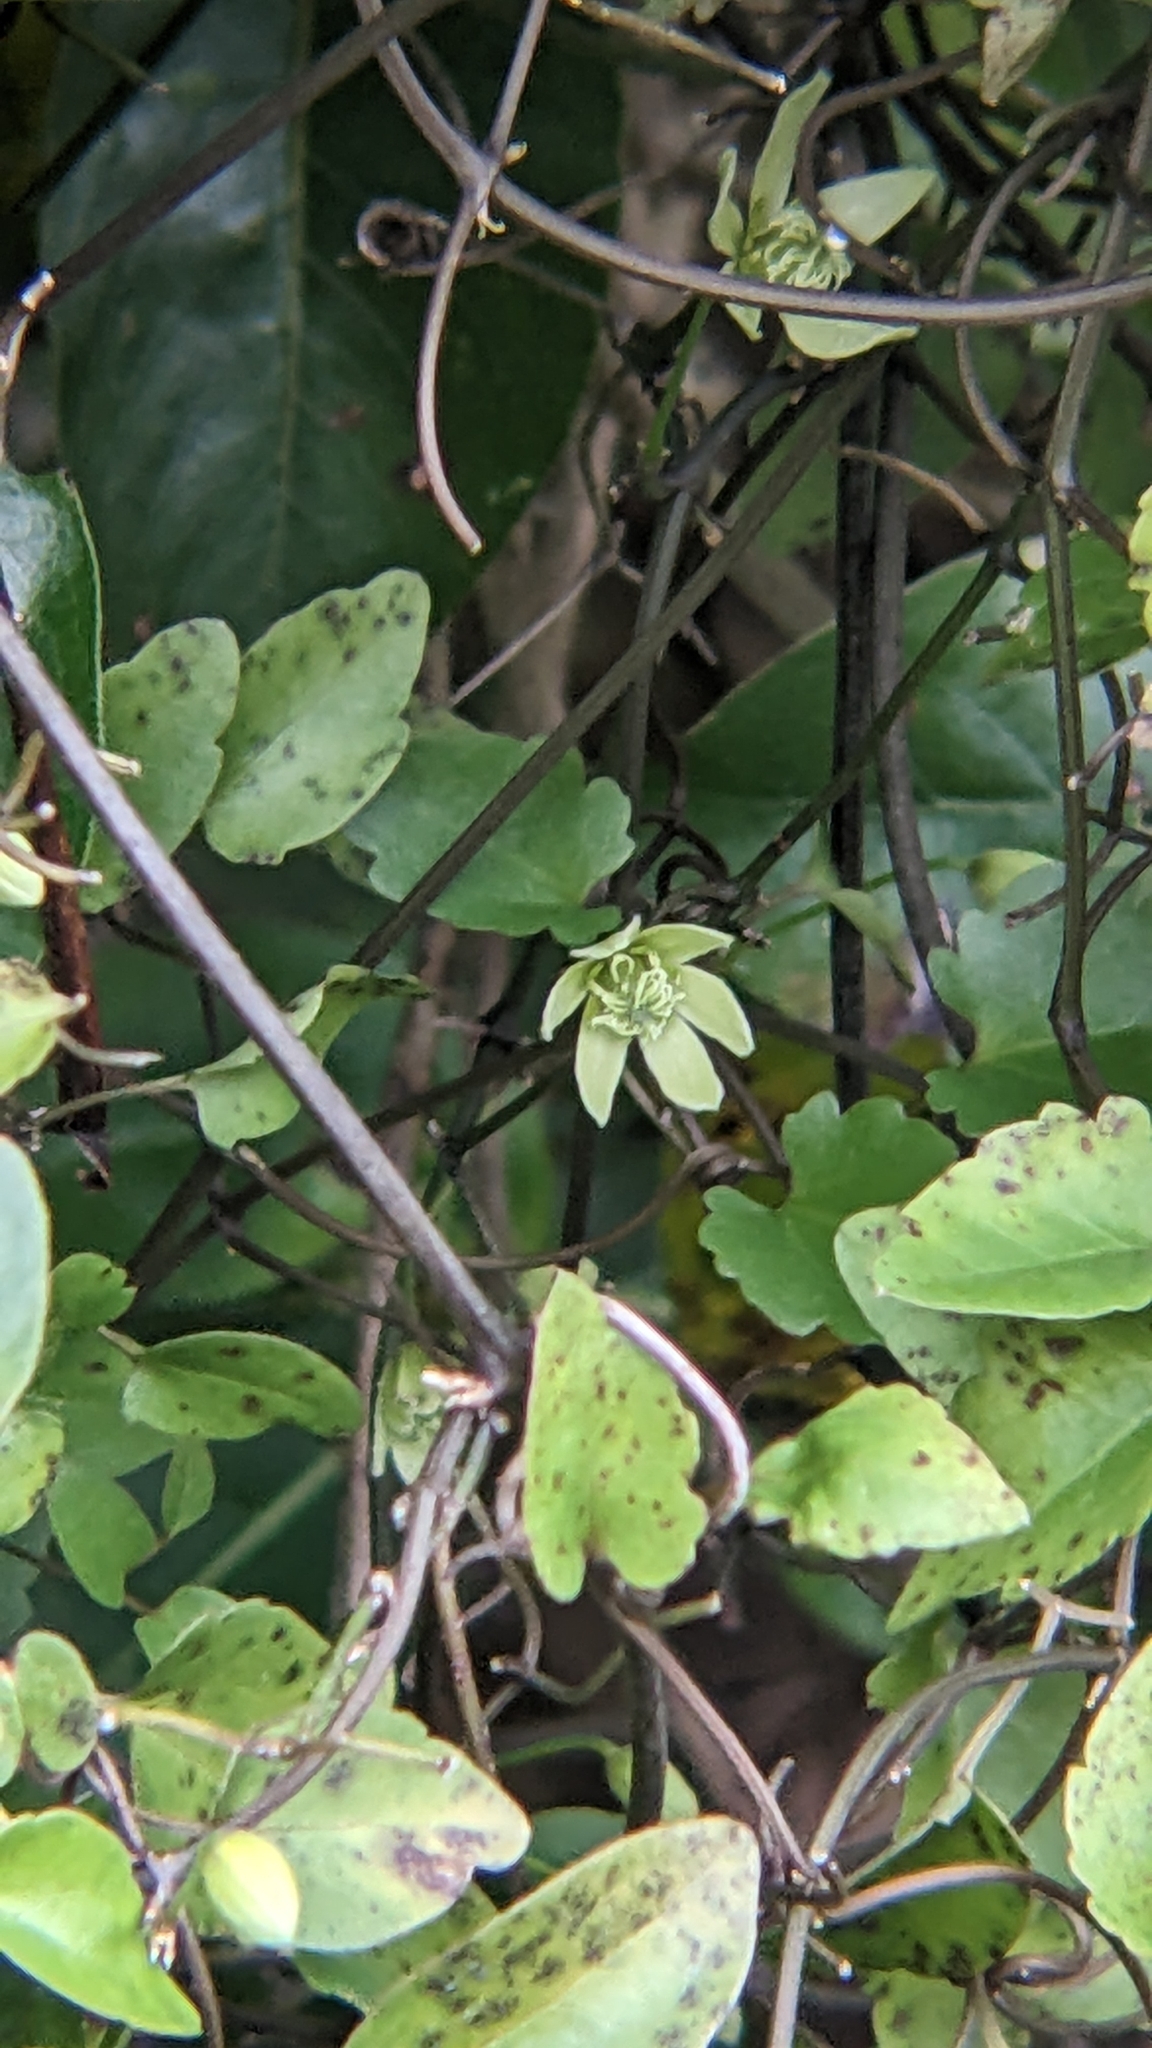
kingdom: Plantae
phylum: Tracheophyta
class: Magnoliopsida
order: Ranunculales
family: Ranunculaceae
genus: Clematis
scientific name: Clematis forsteri
